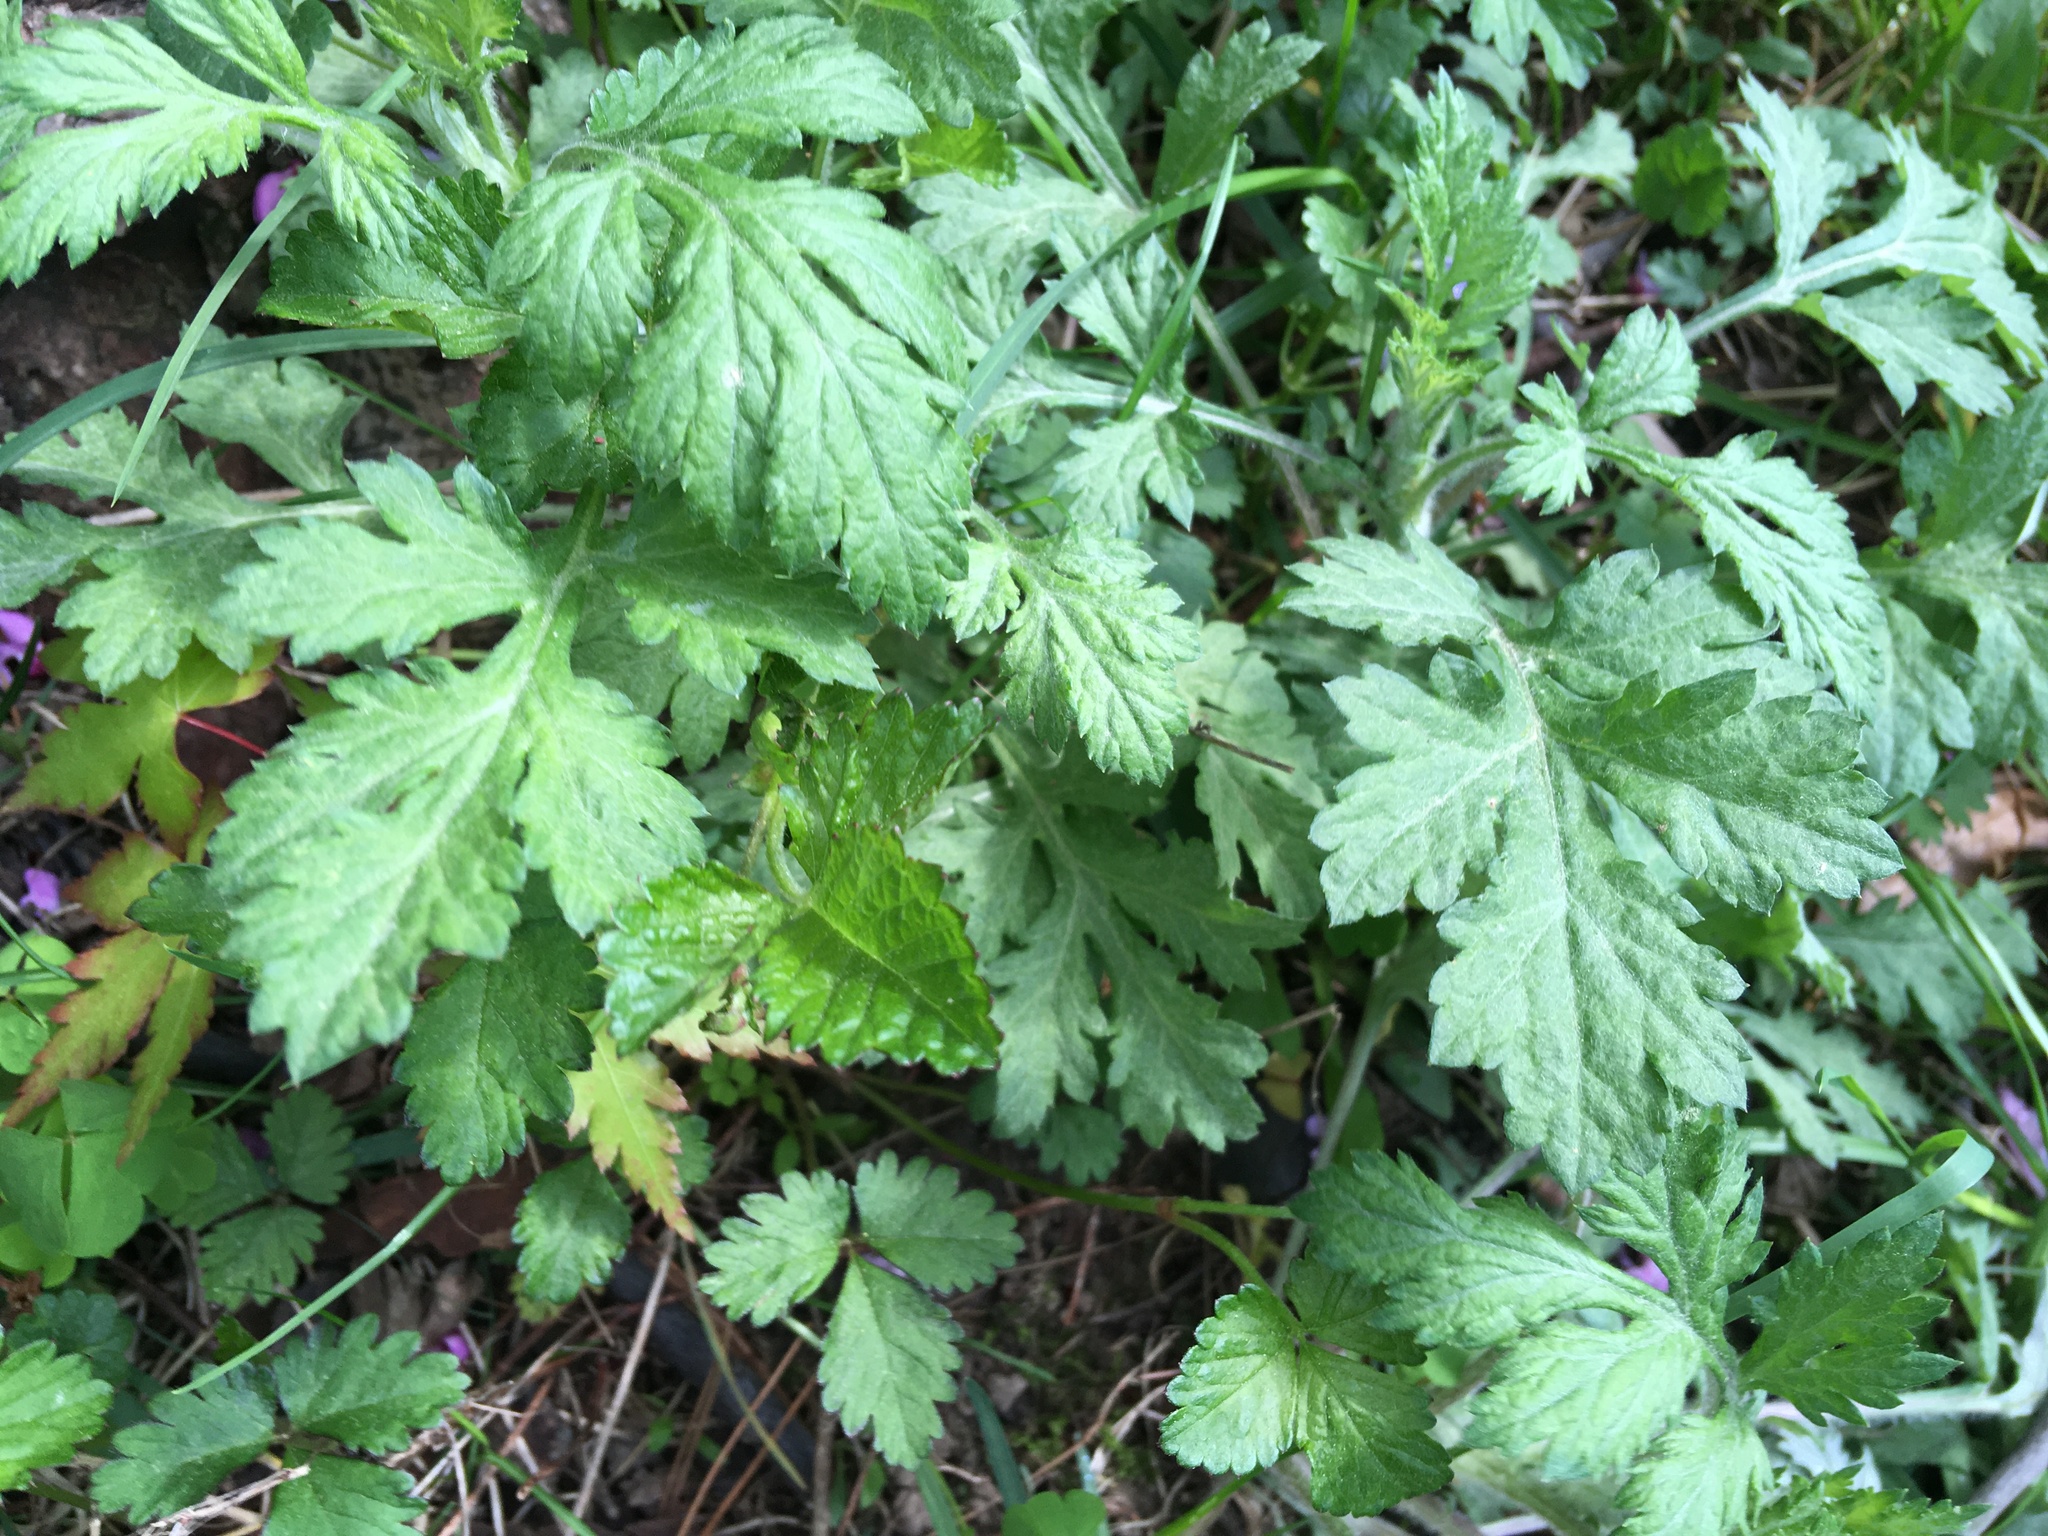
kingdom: Plantae
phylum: Tracheophyta
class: Magnoliopsida
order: Asterales
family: Asteraceae
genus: Artemisia
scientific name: Artemisia vulgaris
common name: Mugwort
